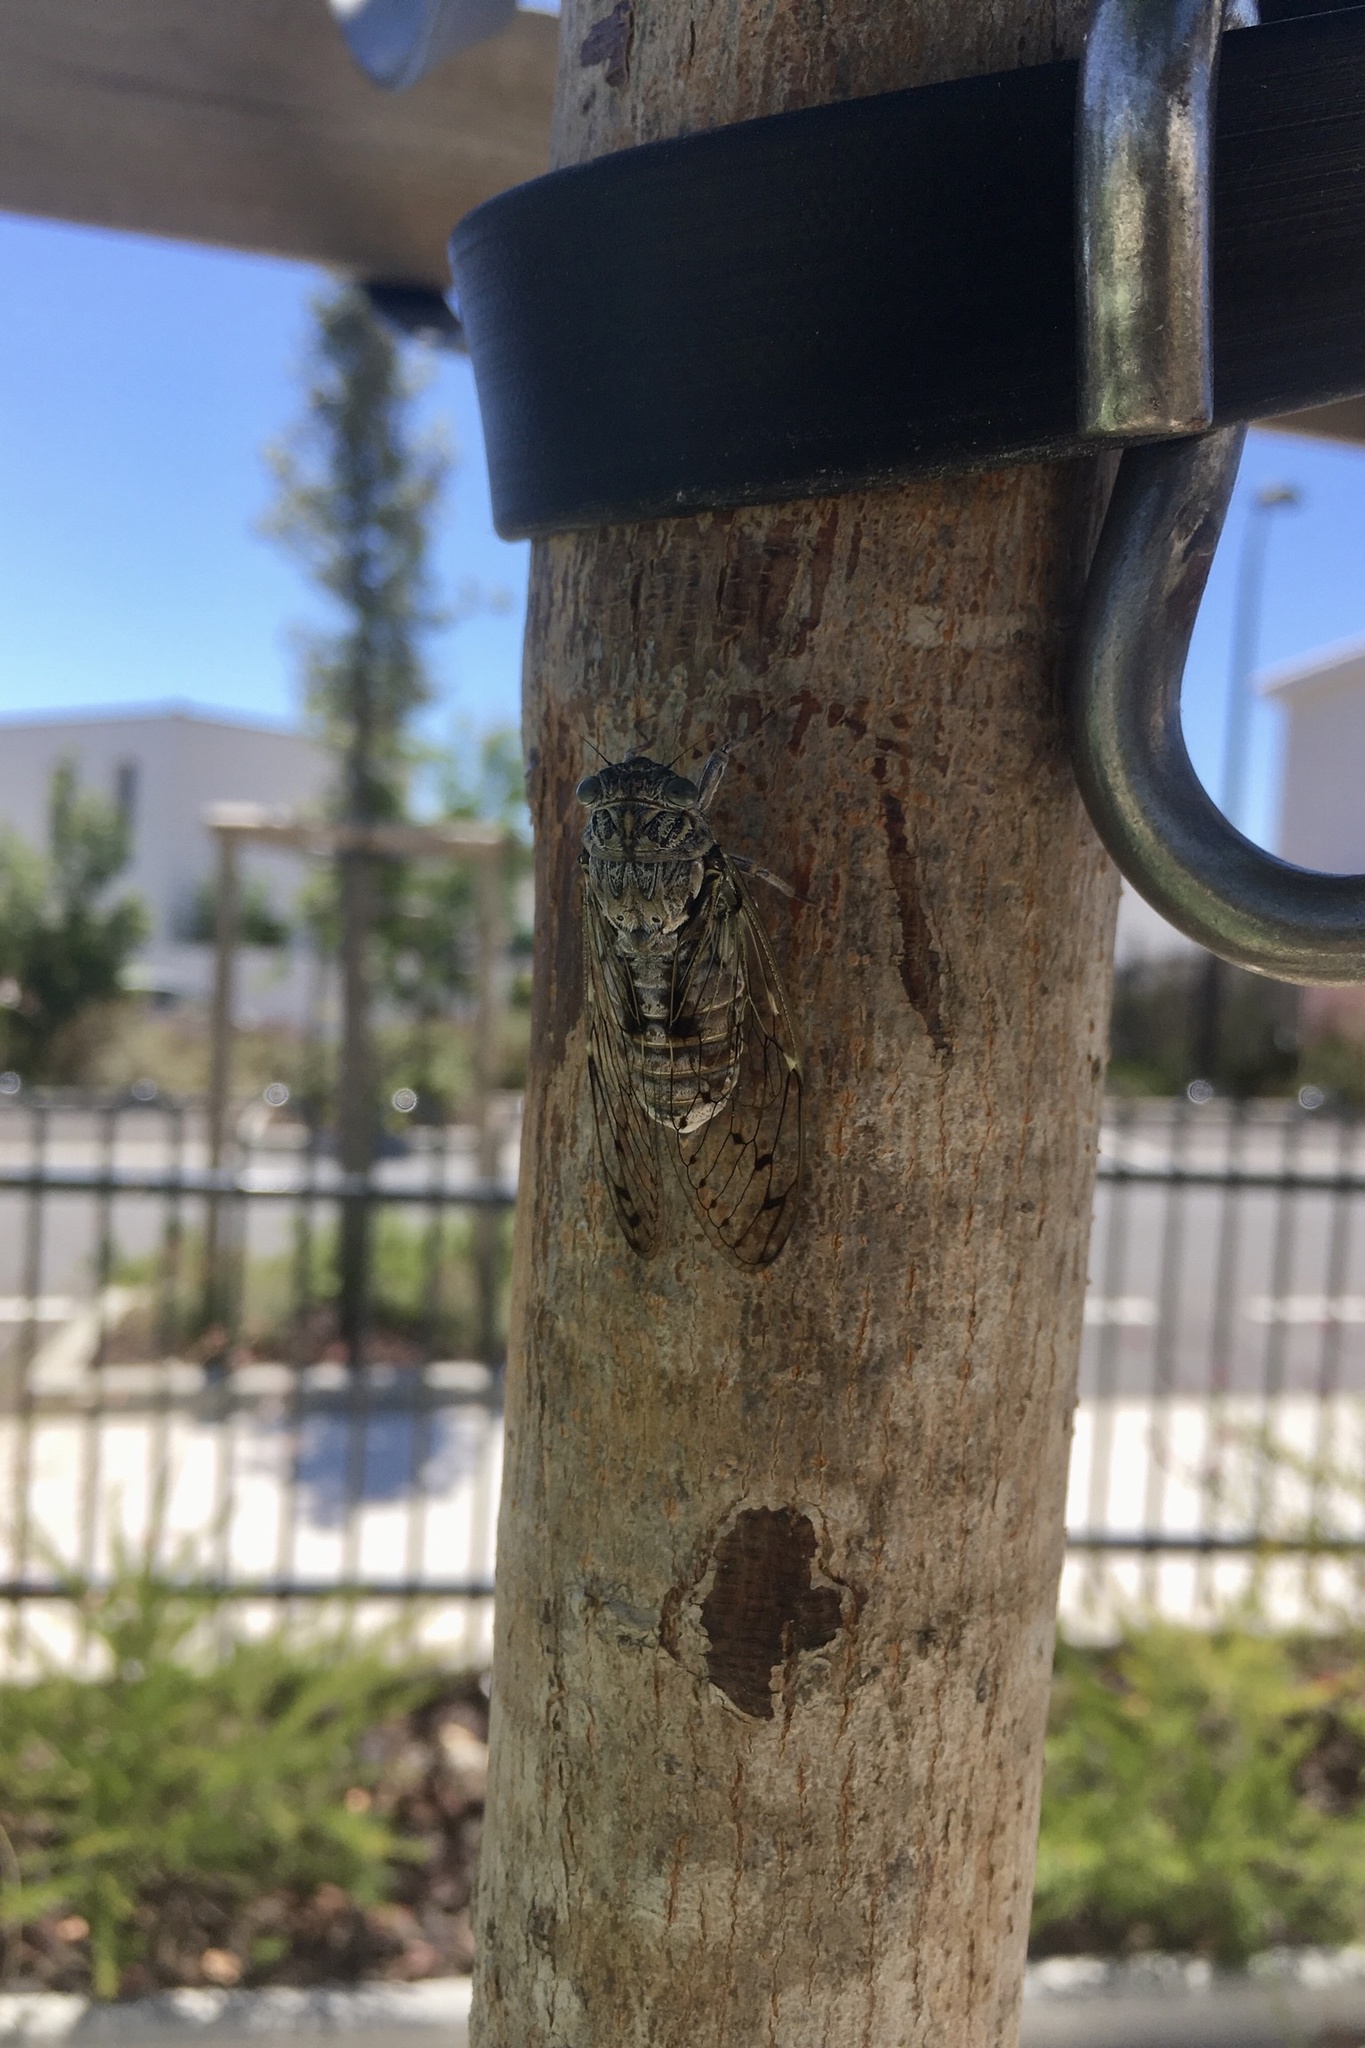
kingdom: Animalia
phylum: Arthropoda
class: Insecta
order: Hemiptera
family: Cicadidae
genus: Cicada
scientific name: Cicada orni
